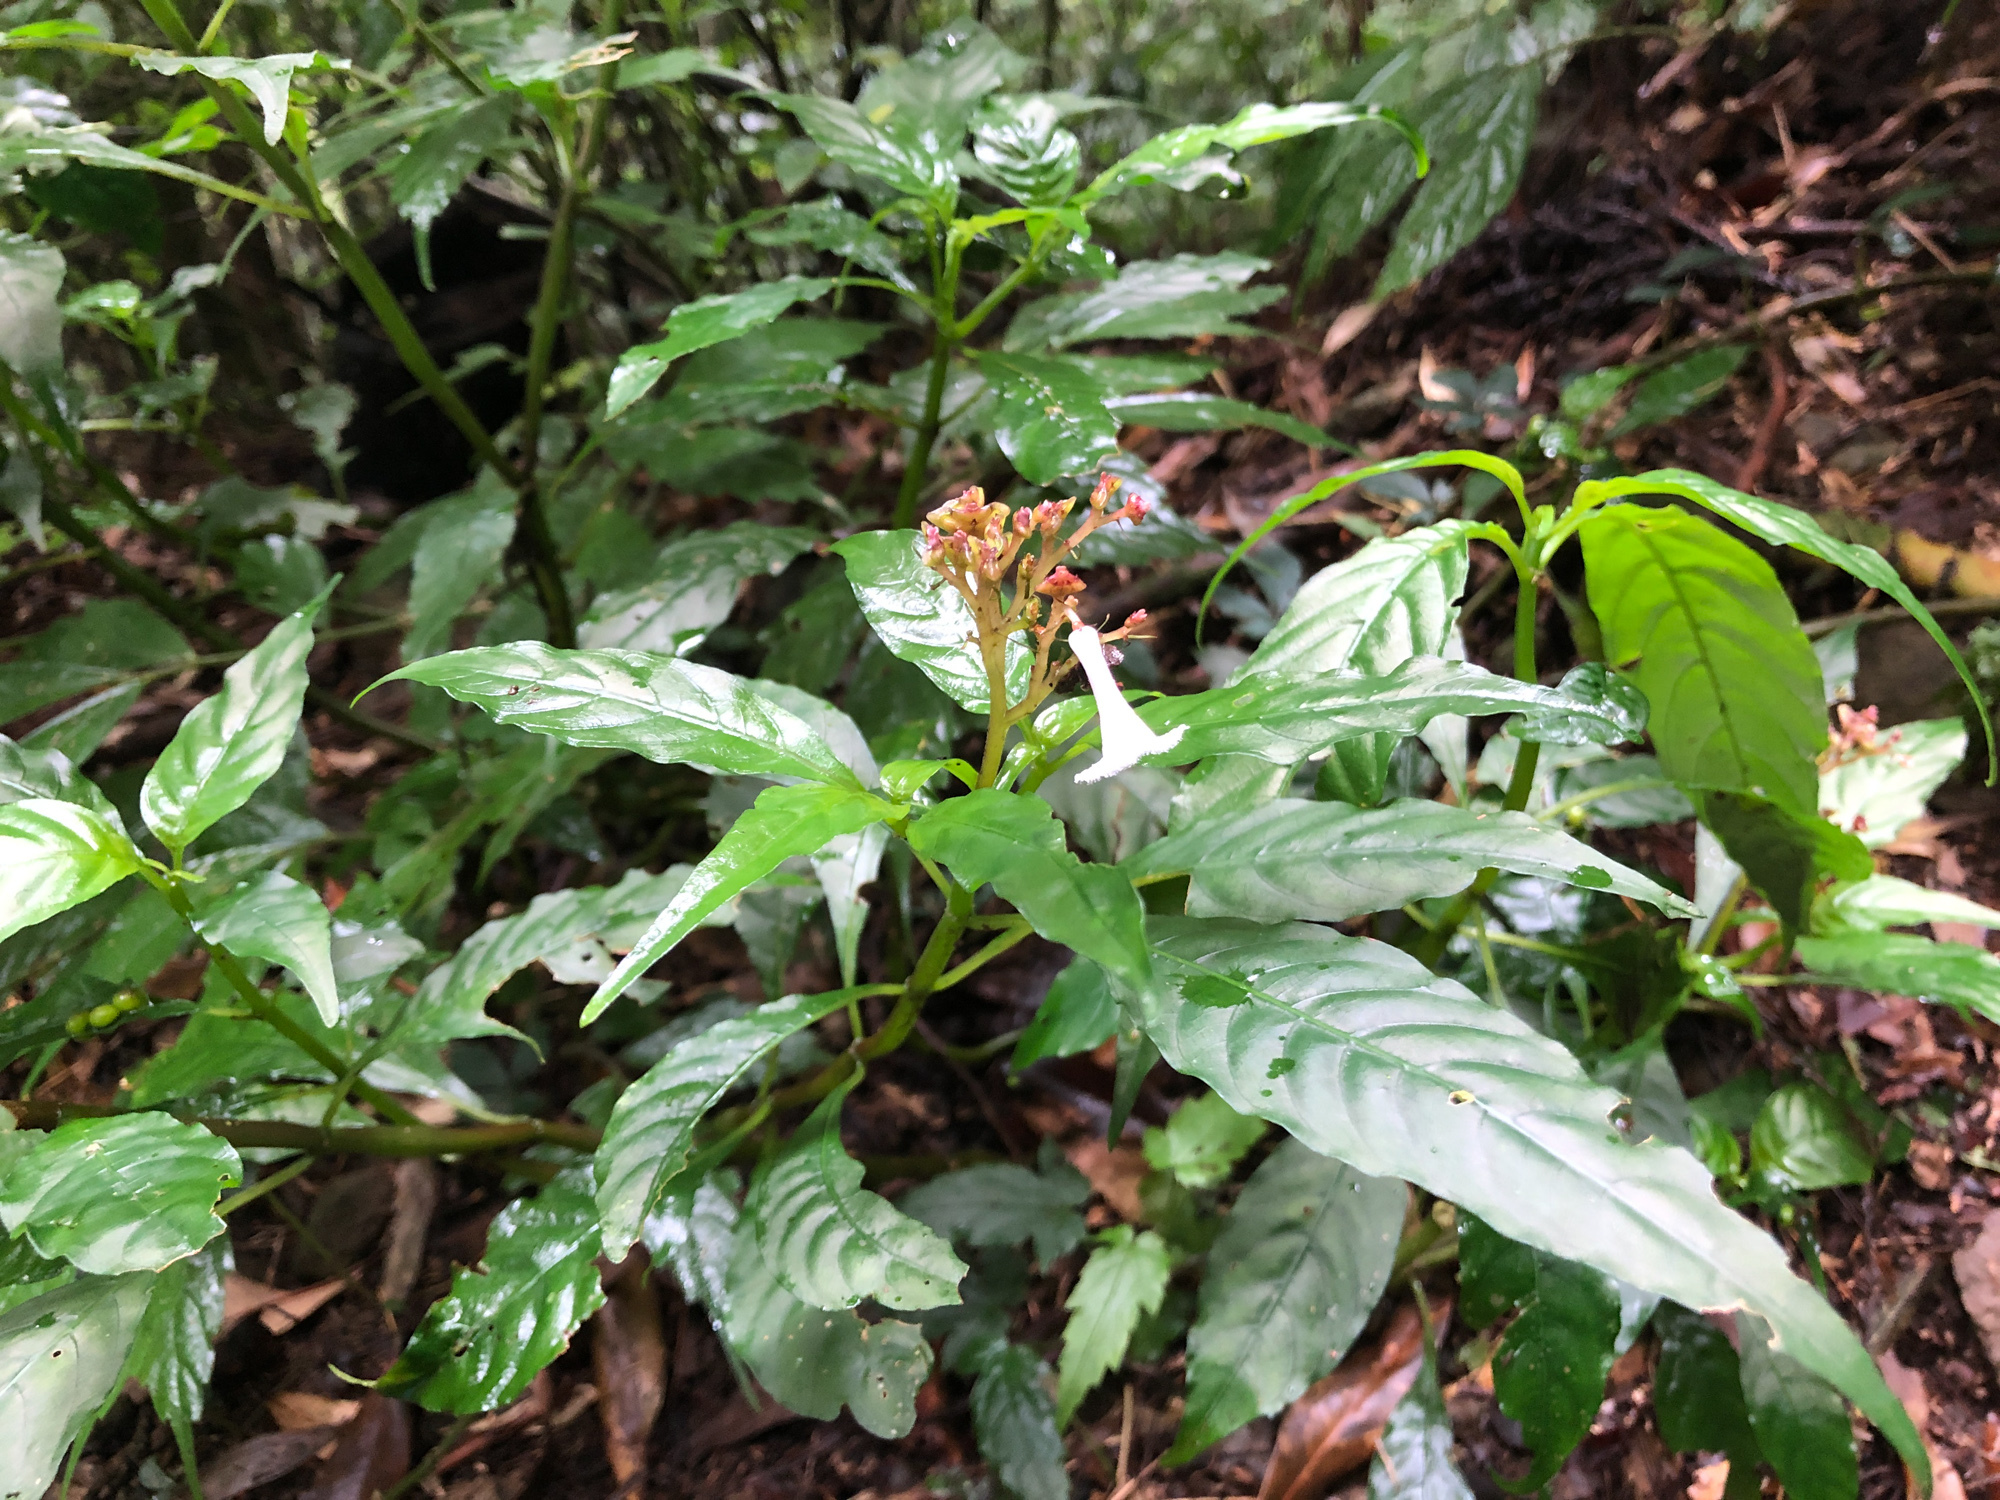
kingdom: Plantae
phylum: Tracheophyta
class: Magnoliopsida
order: Gentianales
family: Rubiaceae
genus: Ophiorrhiza
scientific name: Ophiorrhiza japonica
